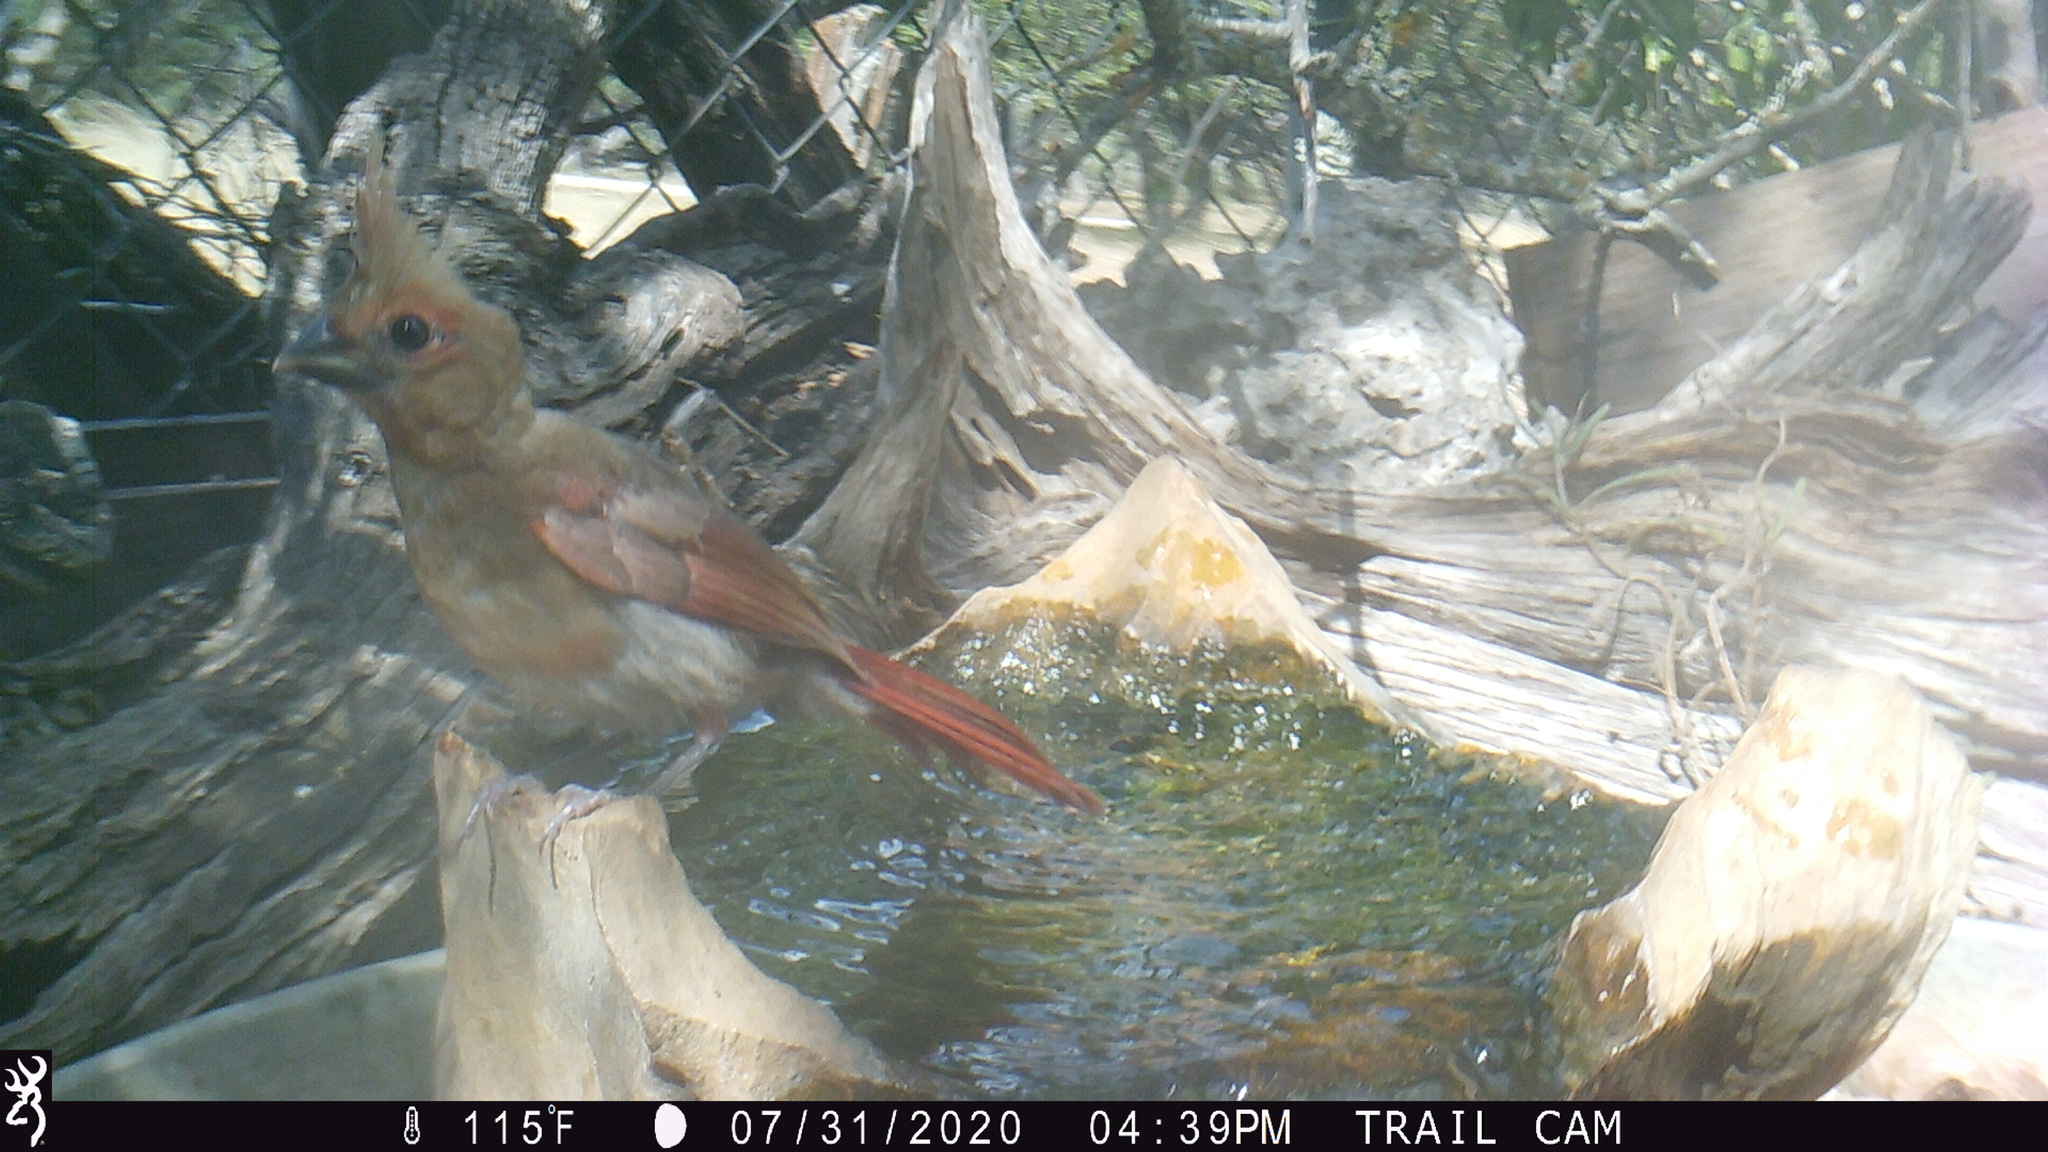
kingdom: Animalia
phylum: Chordata
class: Aves
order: Passeriformes
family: Cardinalidae
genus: Cardinalis
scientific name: Cardinalis cardinalis
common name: Northern cardinal
